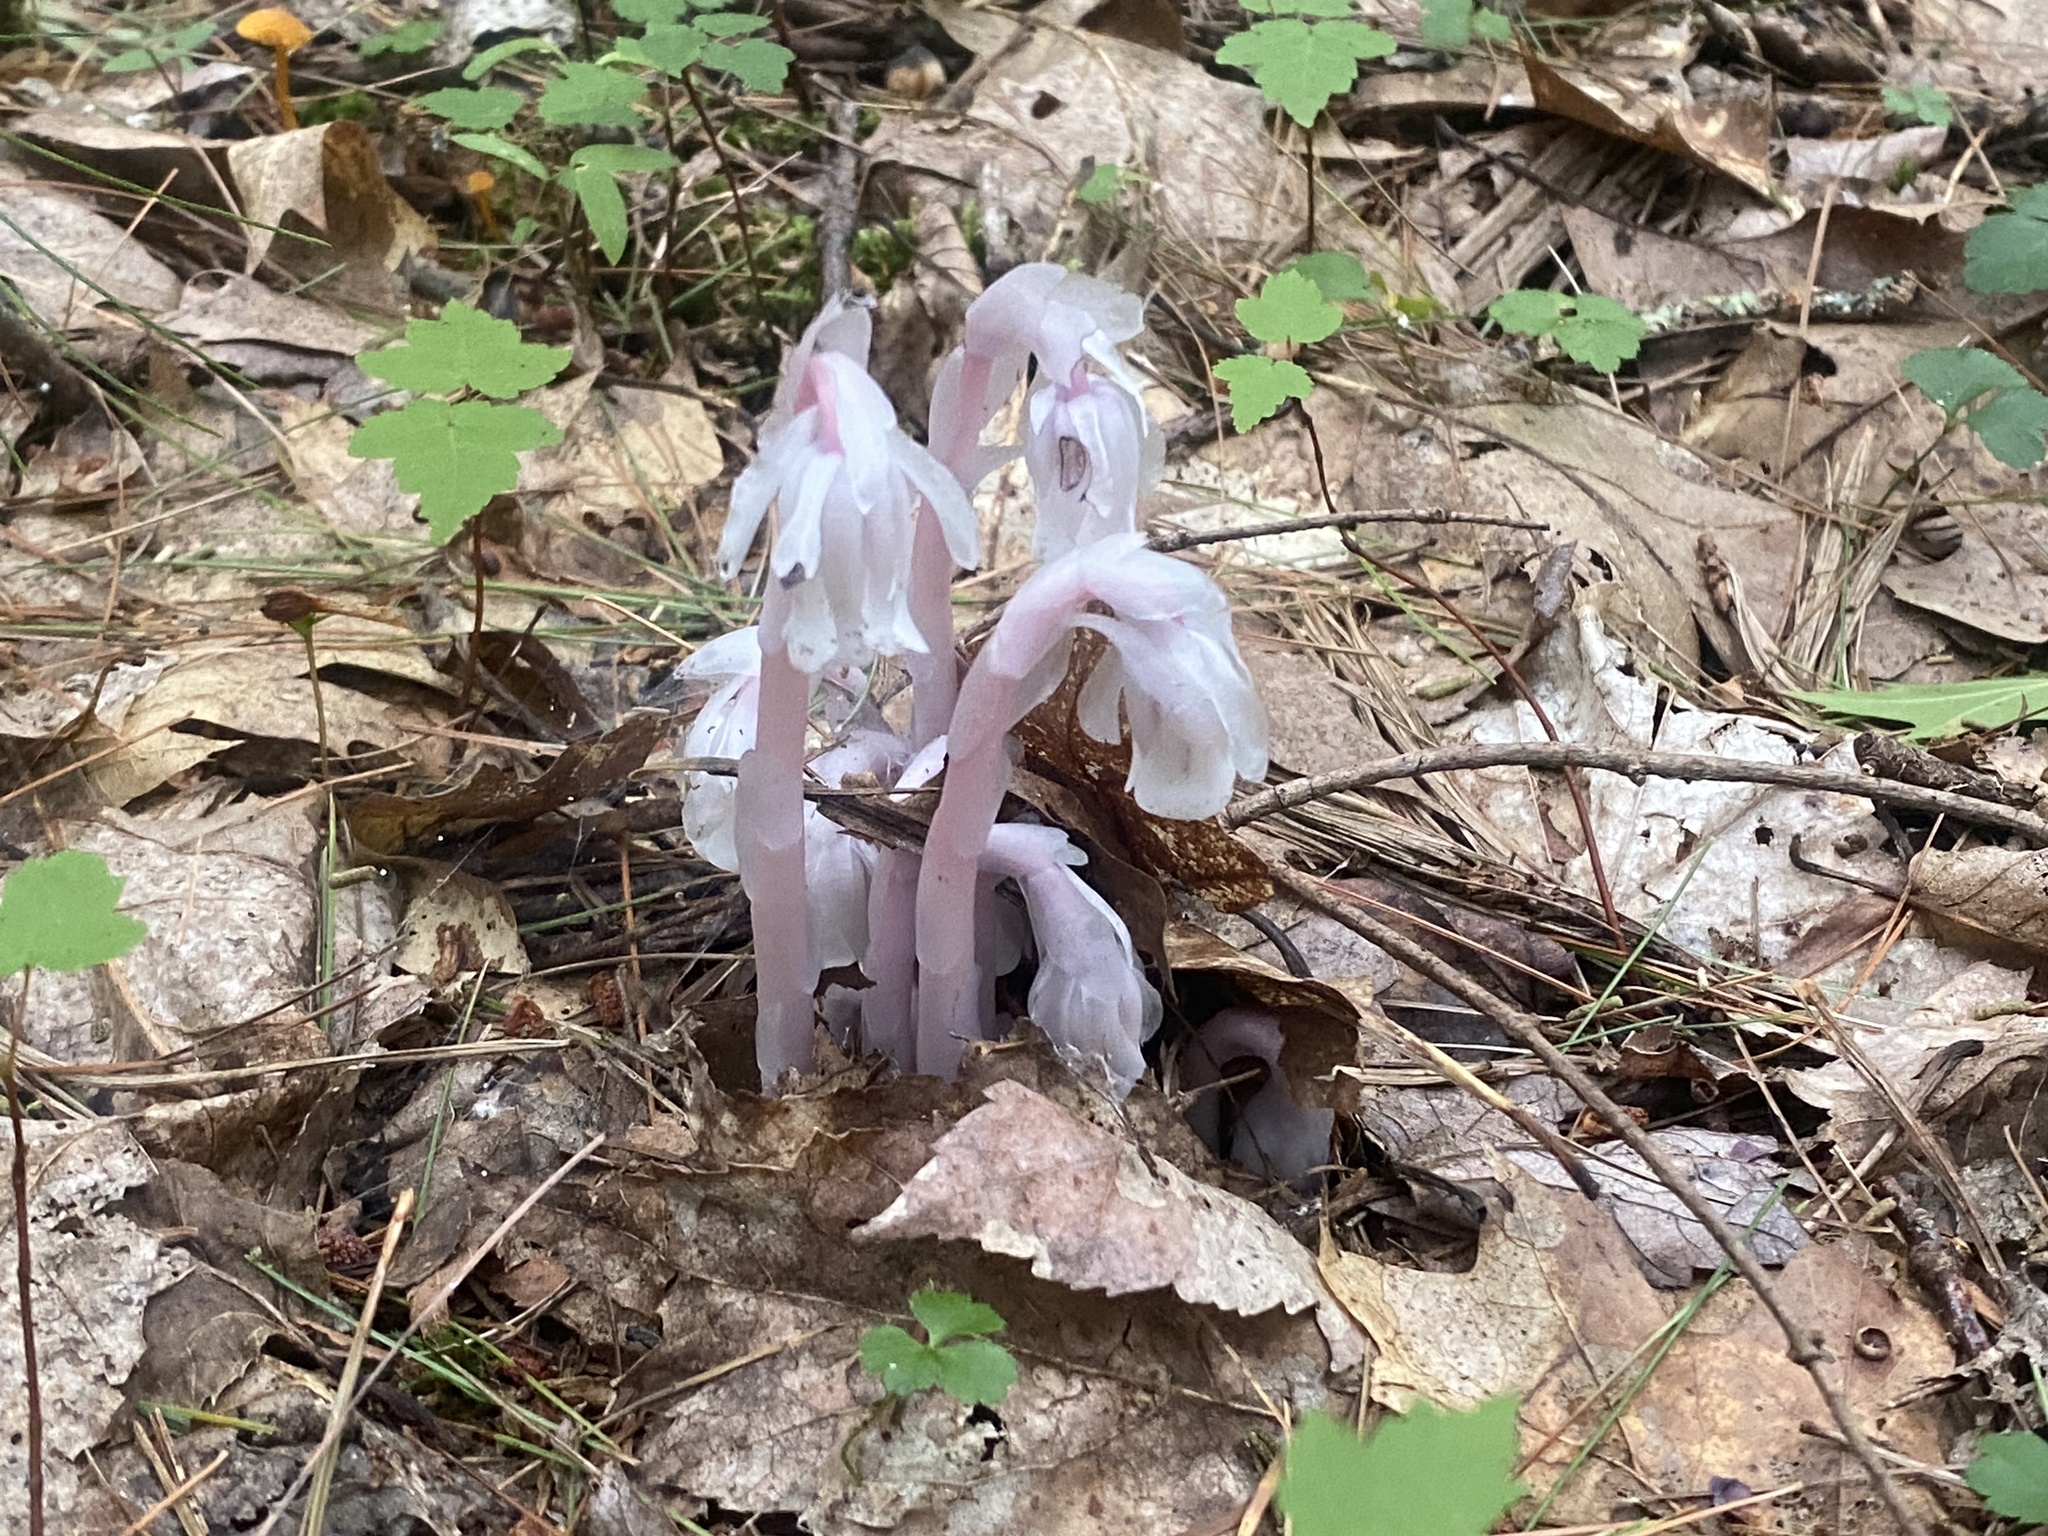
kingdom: Plantae
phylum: Tracheophyta
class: Magnoliopsida
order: Ericales
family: Ericaceae
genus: Monotropa
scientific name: Monotropa uniflora
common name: Convulsion root
